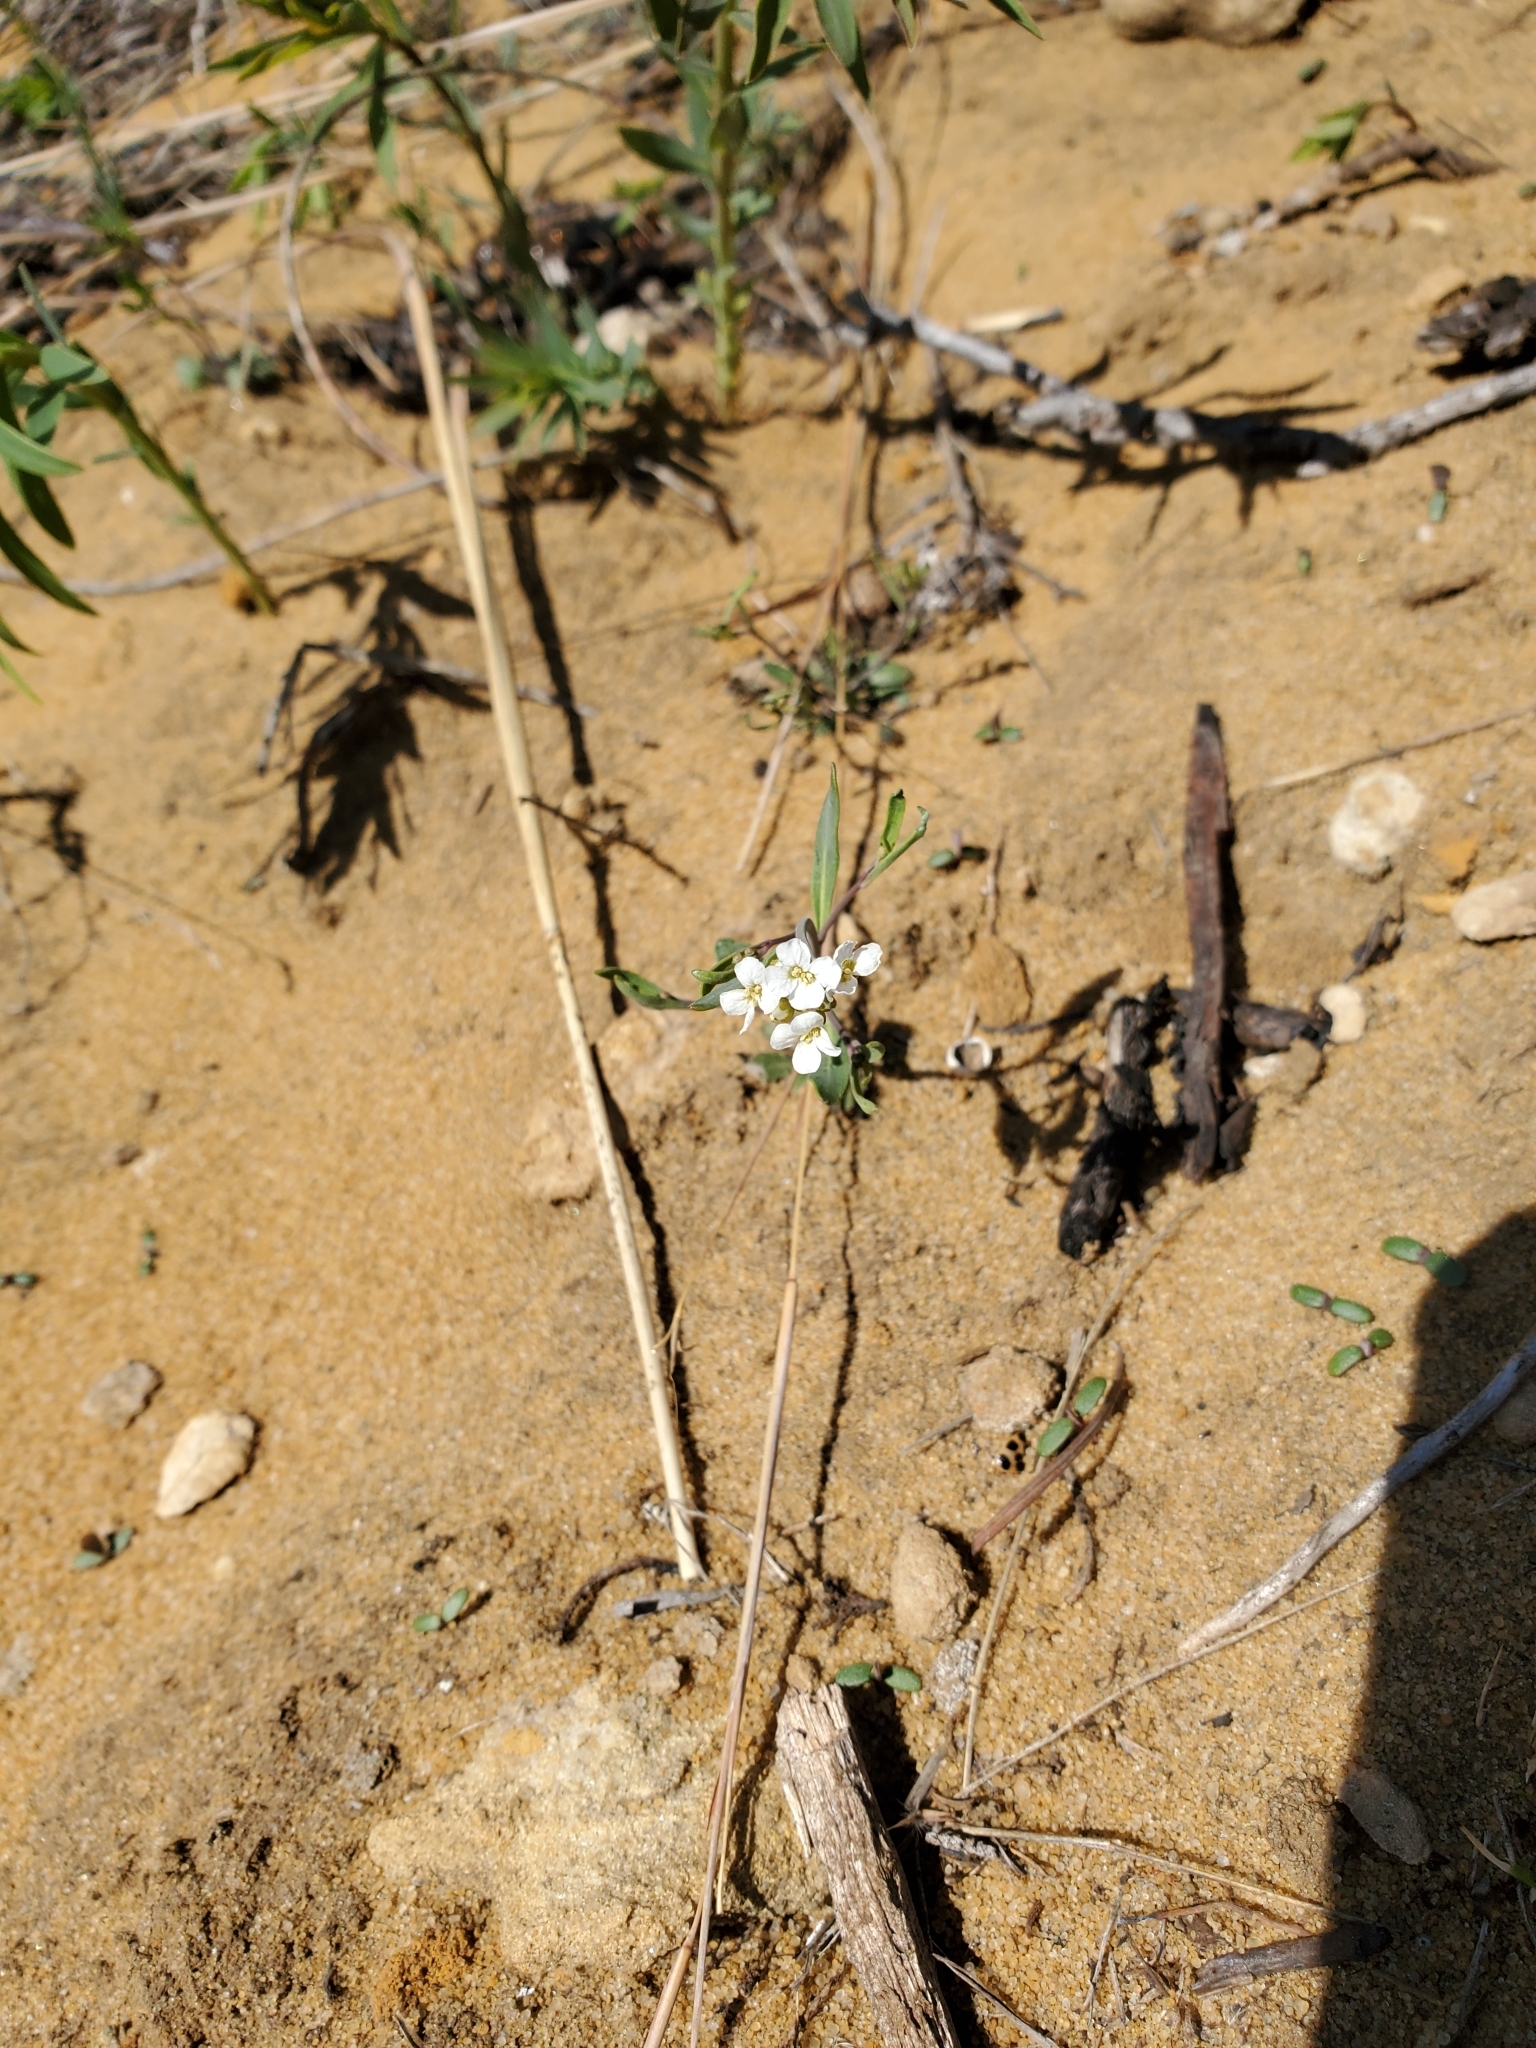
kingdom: Plantae
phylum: Tracheophyta
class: Magnoliopsida
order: Brassicales
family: Brassicaceae
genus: Arabidopsis
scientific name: Arabidopsis lyrata
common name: Lyrate rockcress
